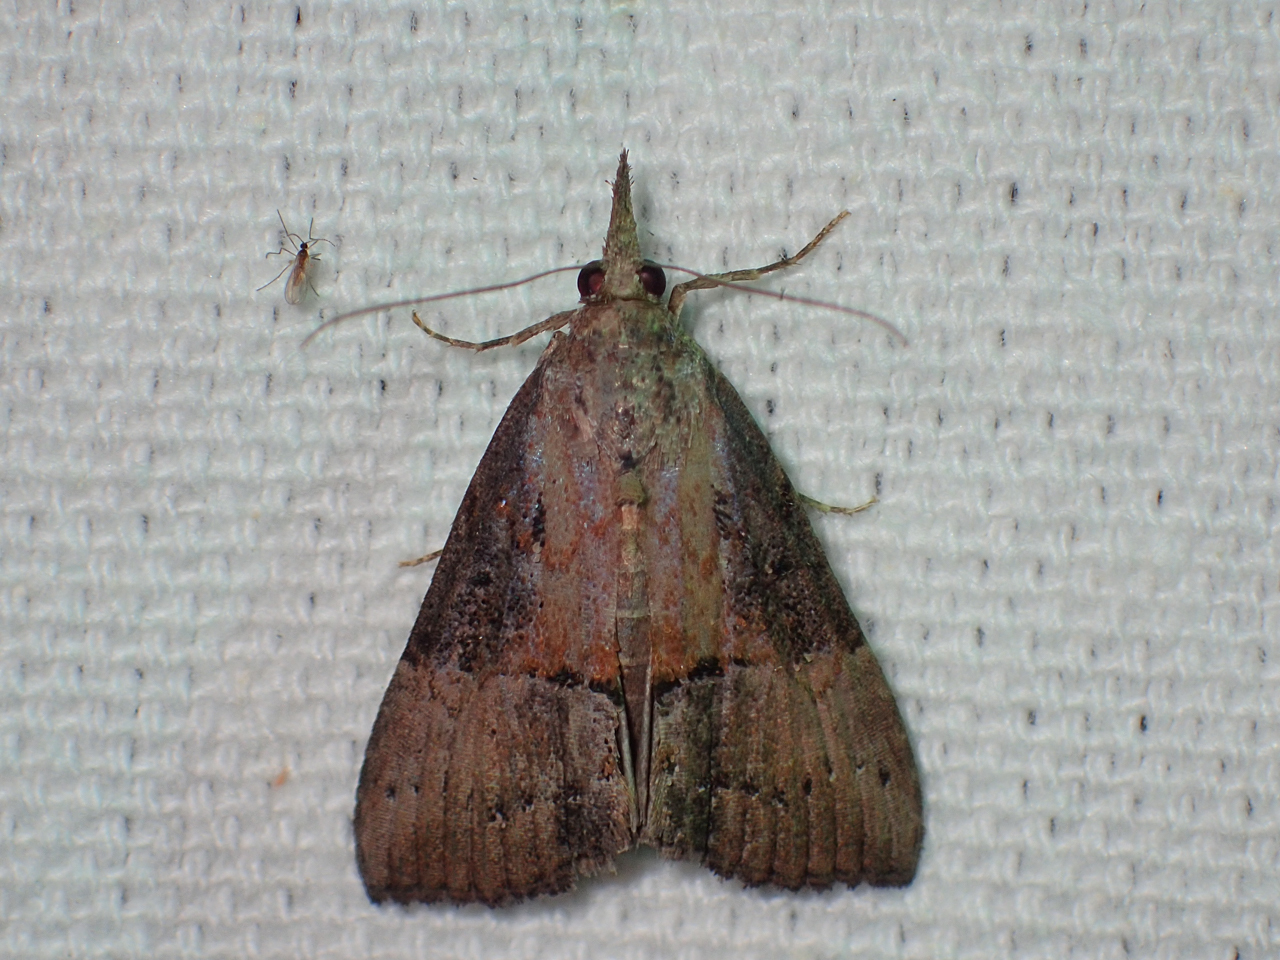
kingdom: Animalia
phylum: Arthropoda
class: Insecta
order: Lepidoptera
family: Erebidae
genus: Hypena
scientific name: Hypena scabra
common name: Green cloverworm
